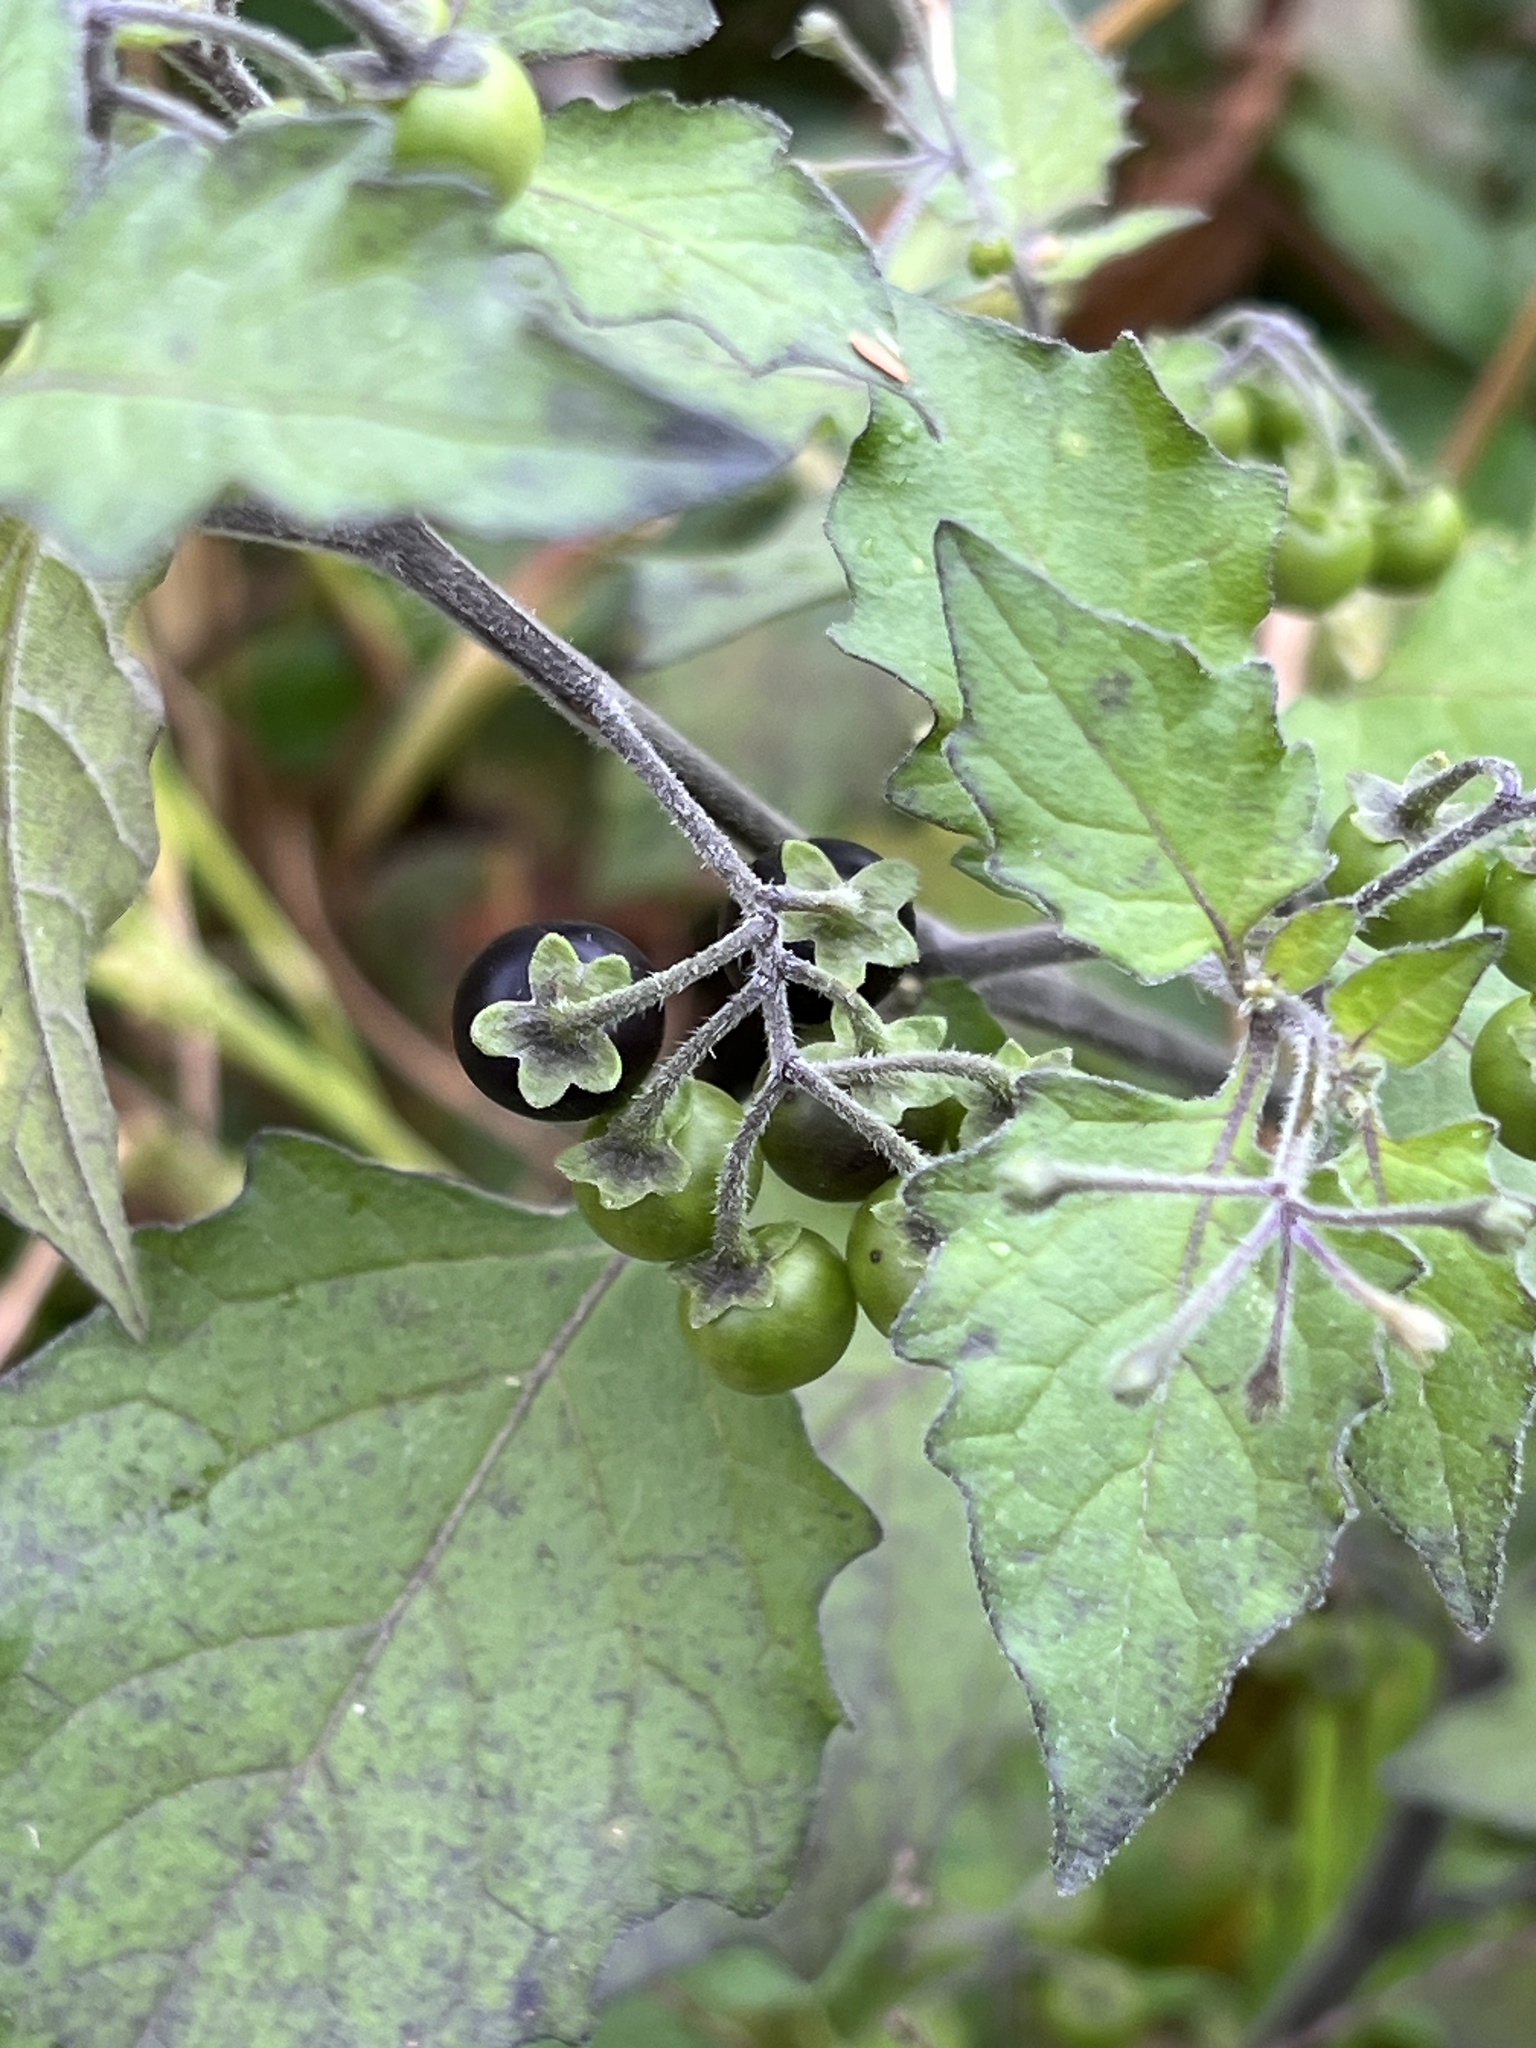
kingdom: Plantae
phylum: Tracheophyta
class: Magnoliopsida
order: Solanales
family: Solanaceae
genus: Solanum
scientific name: Solanum nigrum
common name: Black nightshade
